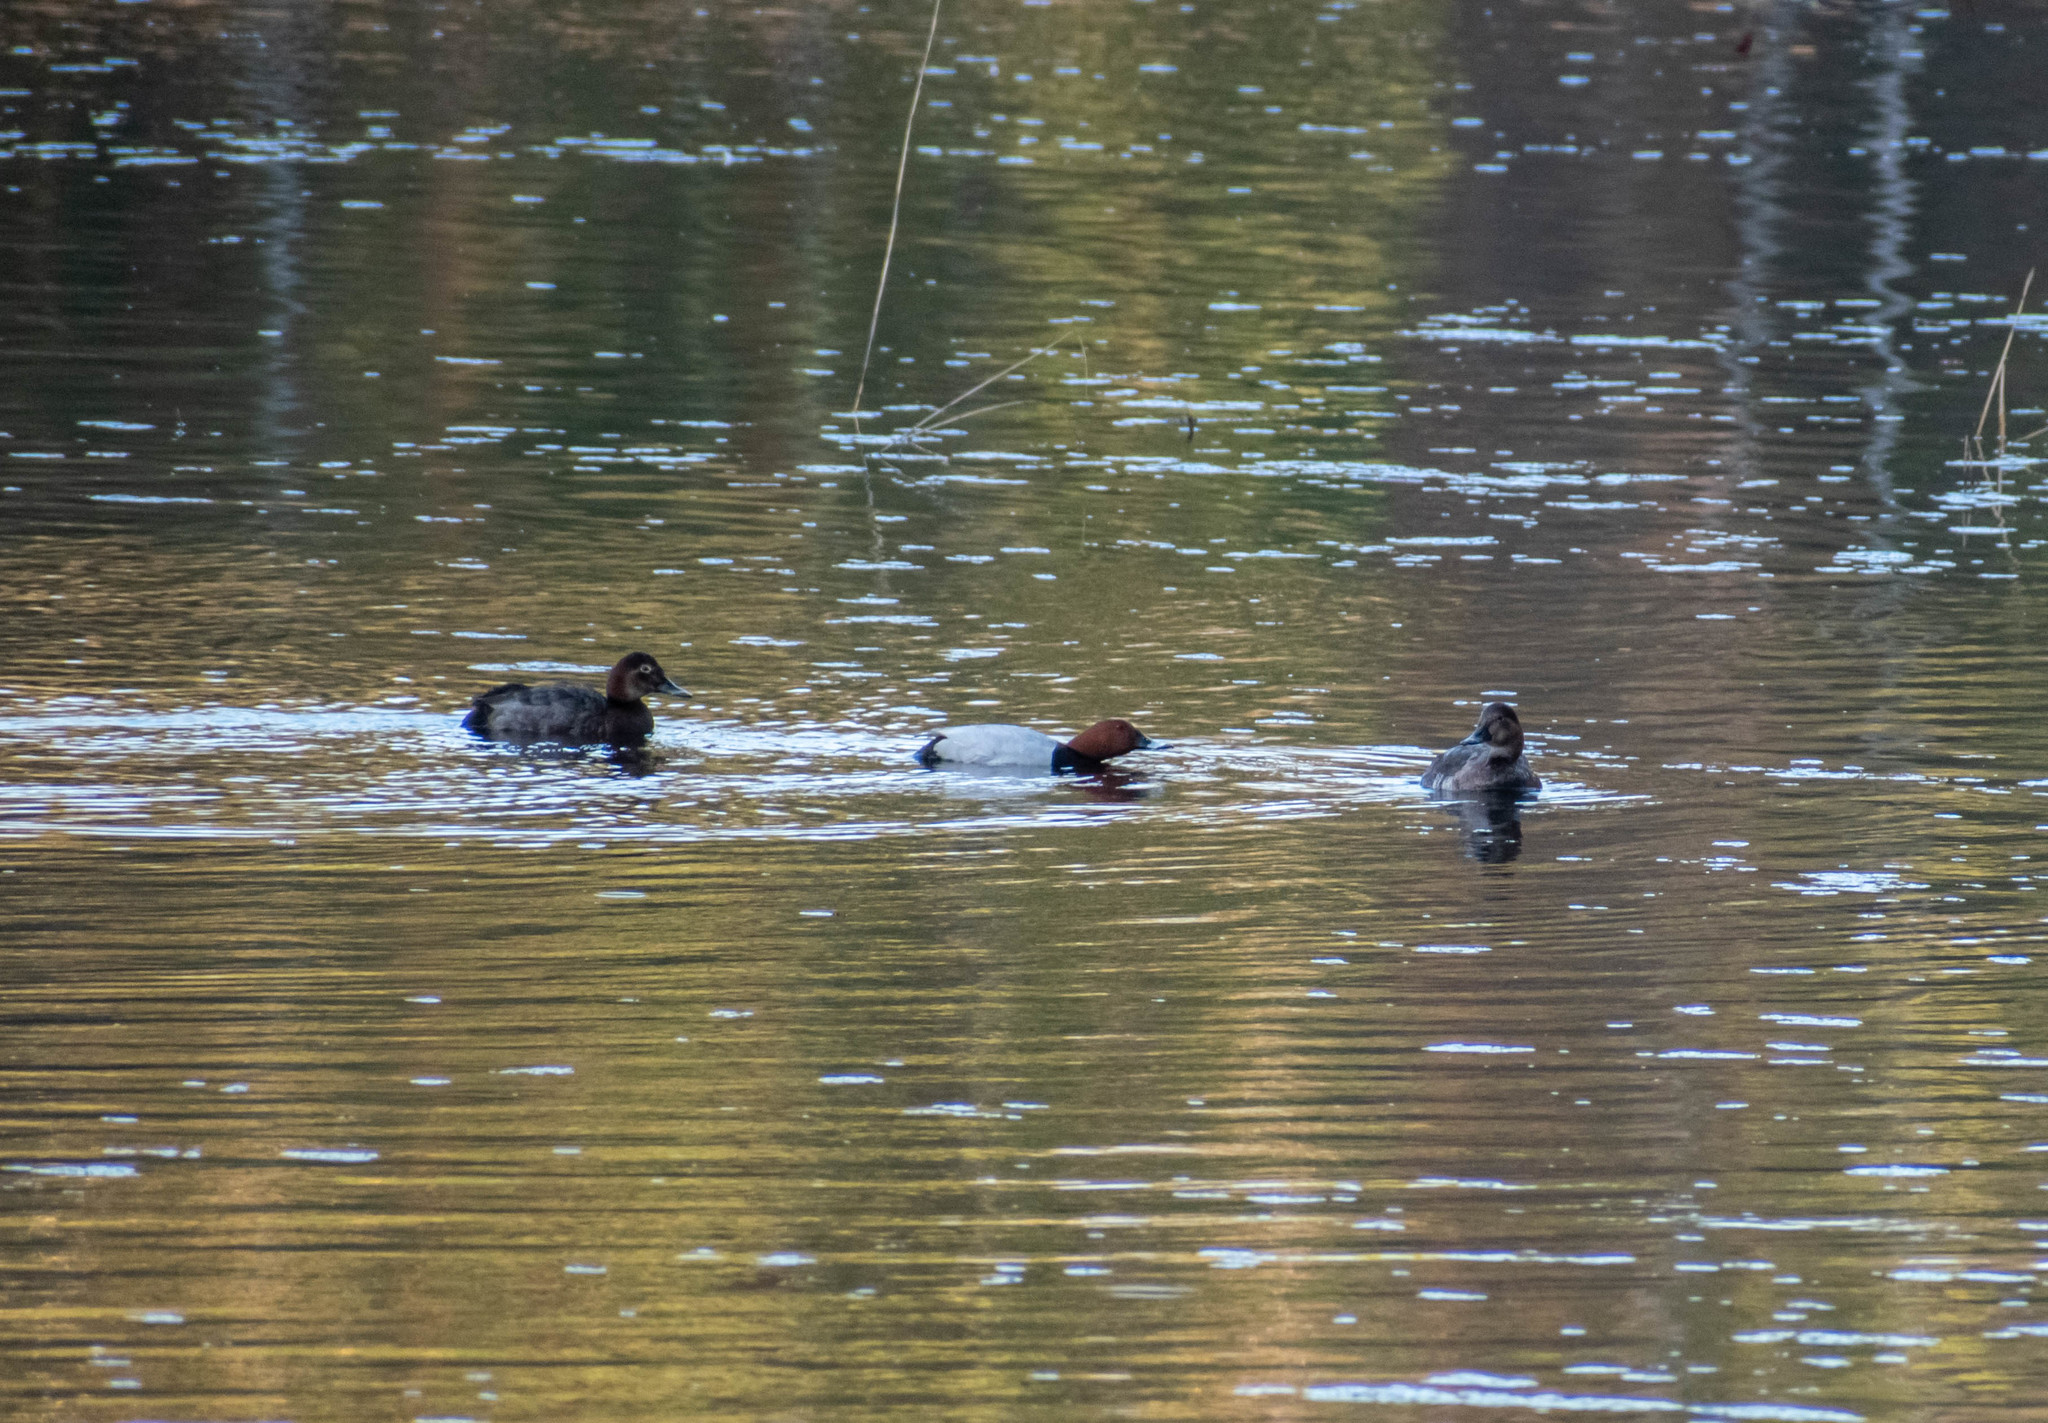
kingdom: Animalia
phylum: Chordata
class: Aves
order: Anseriformes
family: Anatidae
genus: Aythya
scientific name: Aythya ferina
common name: Common pochard
